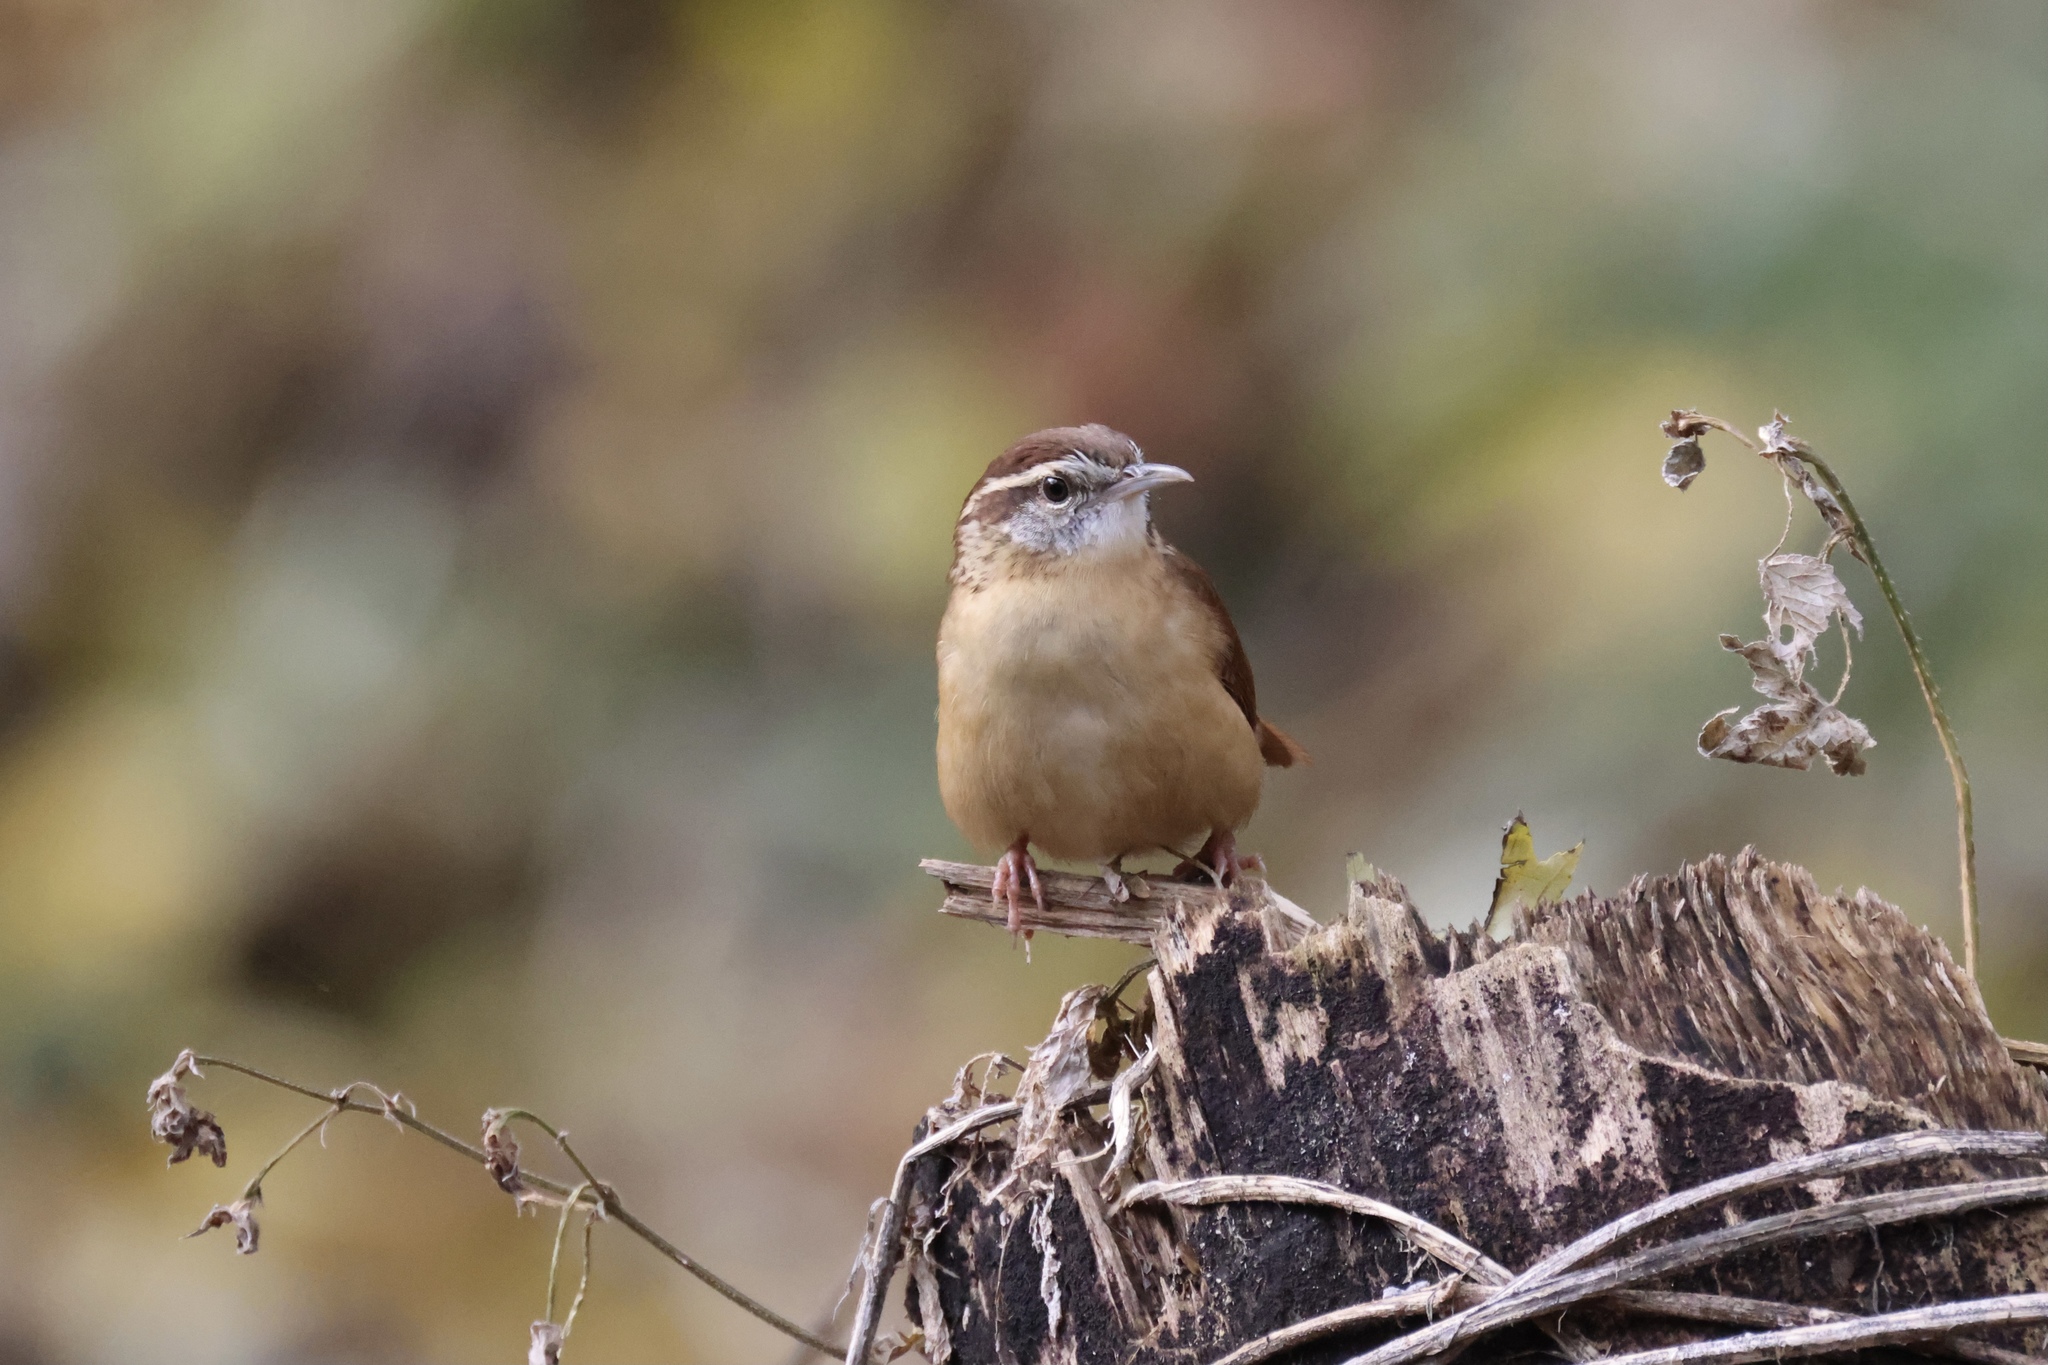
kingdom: Animalia
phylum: Chordata
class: Aves
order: Passeriformes
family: Troglodytidae
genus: Thryothorus
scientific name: Thryothorus ludovicianus
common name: Carolina wren
